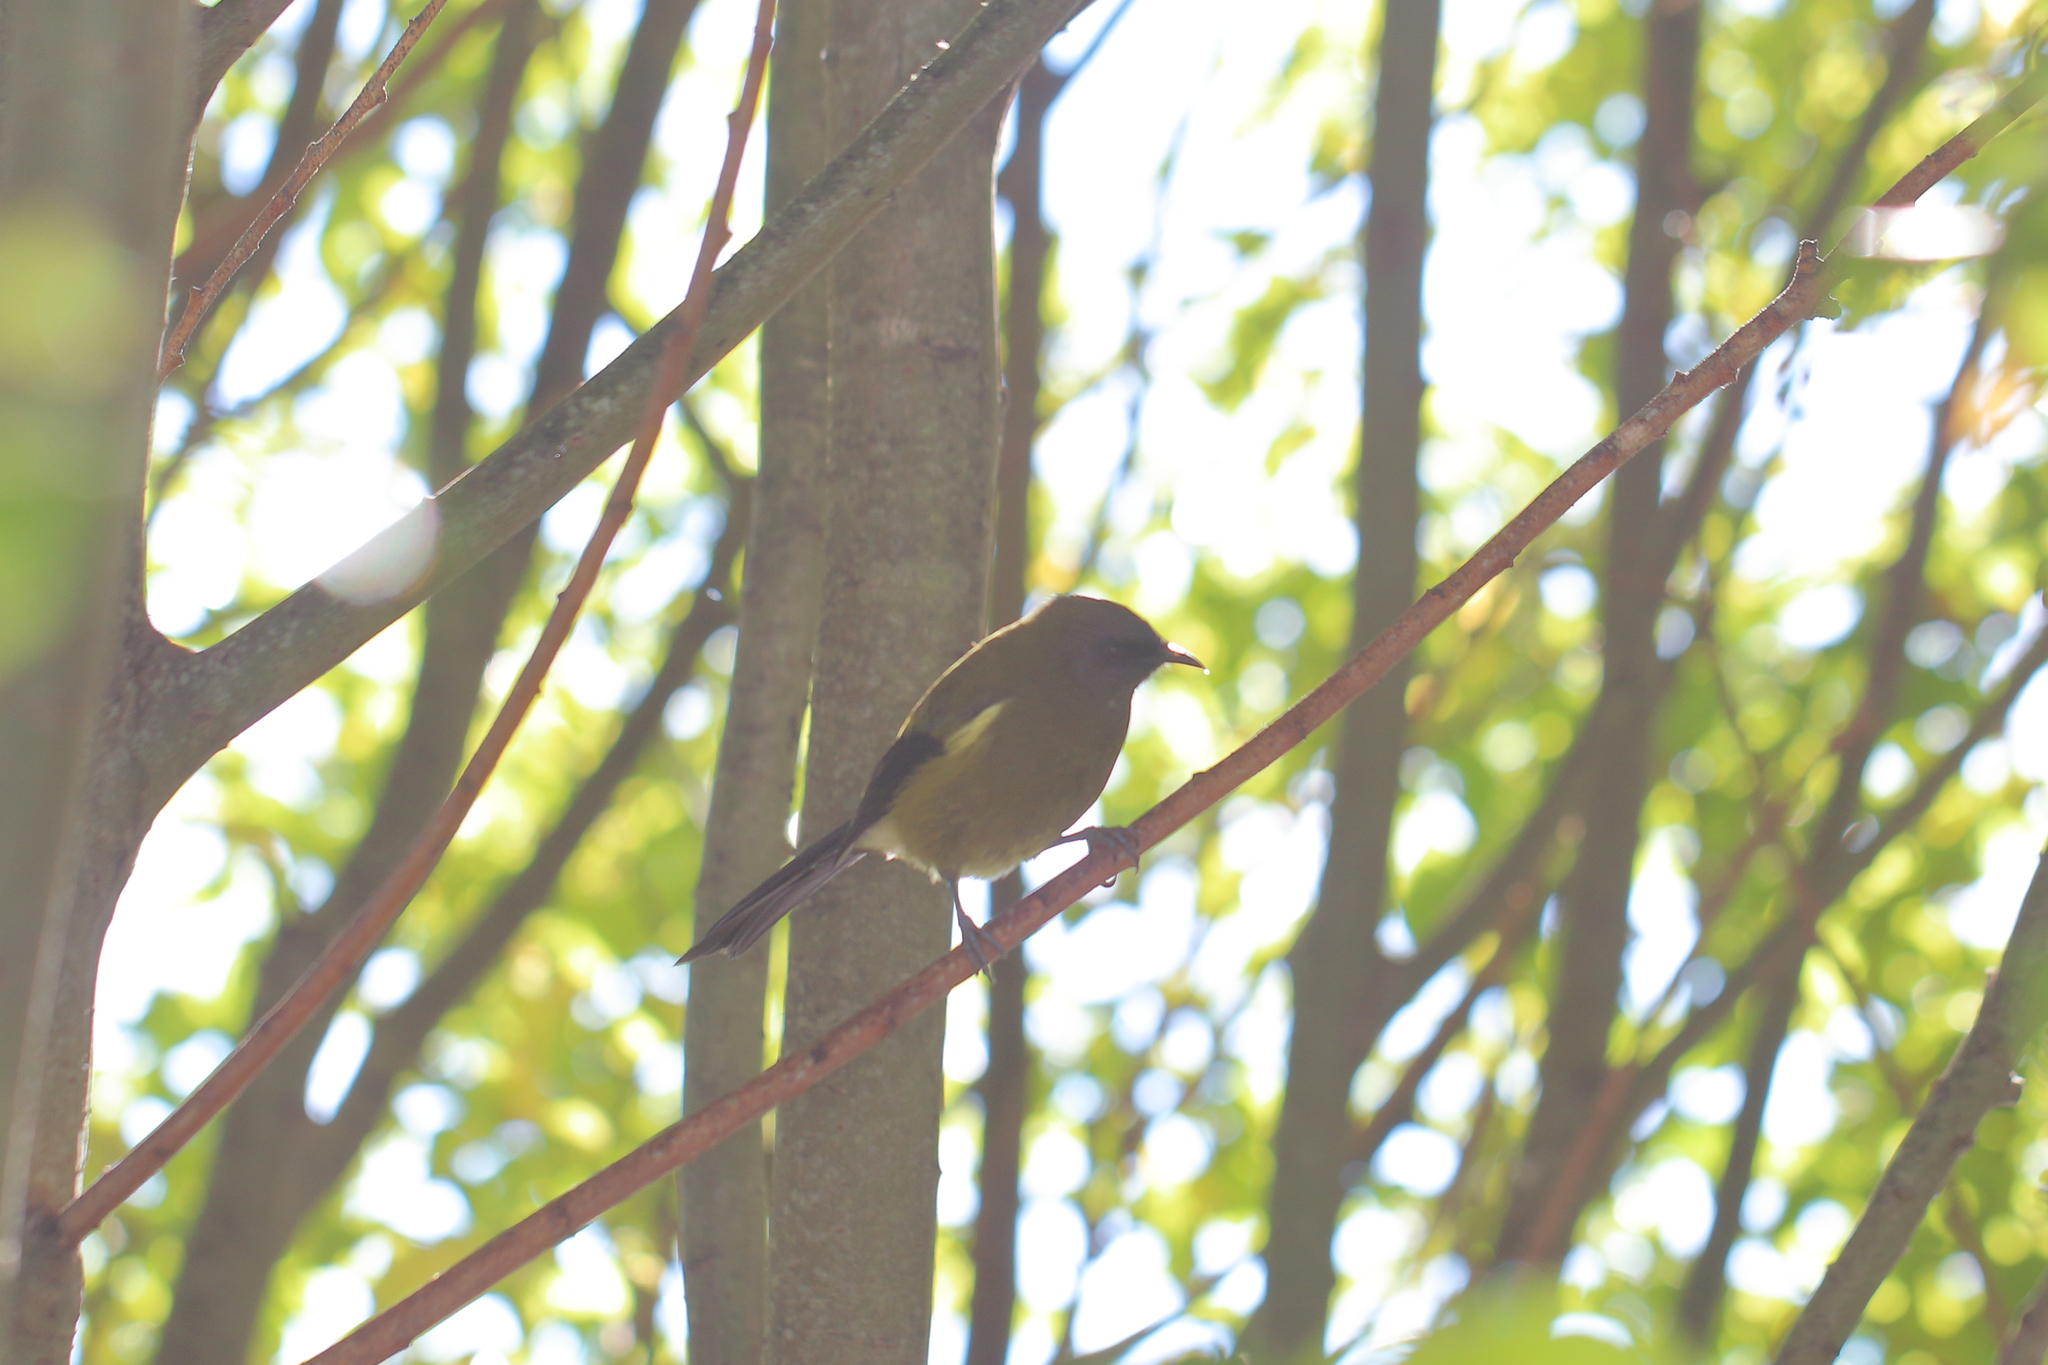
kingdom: Animalia
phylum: Chordata
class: Aves
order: Passeriformes
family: Meliphagidae
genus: Anthornis
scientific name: Anthornis melanura
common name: New zealand bellbird
